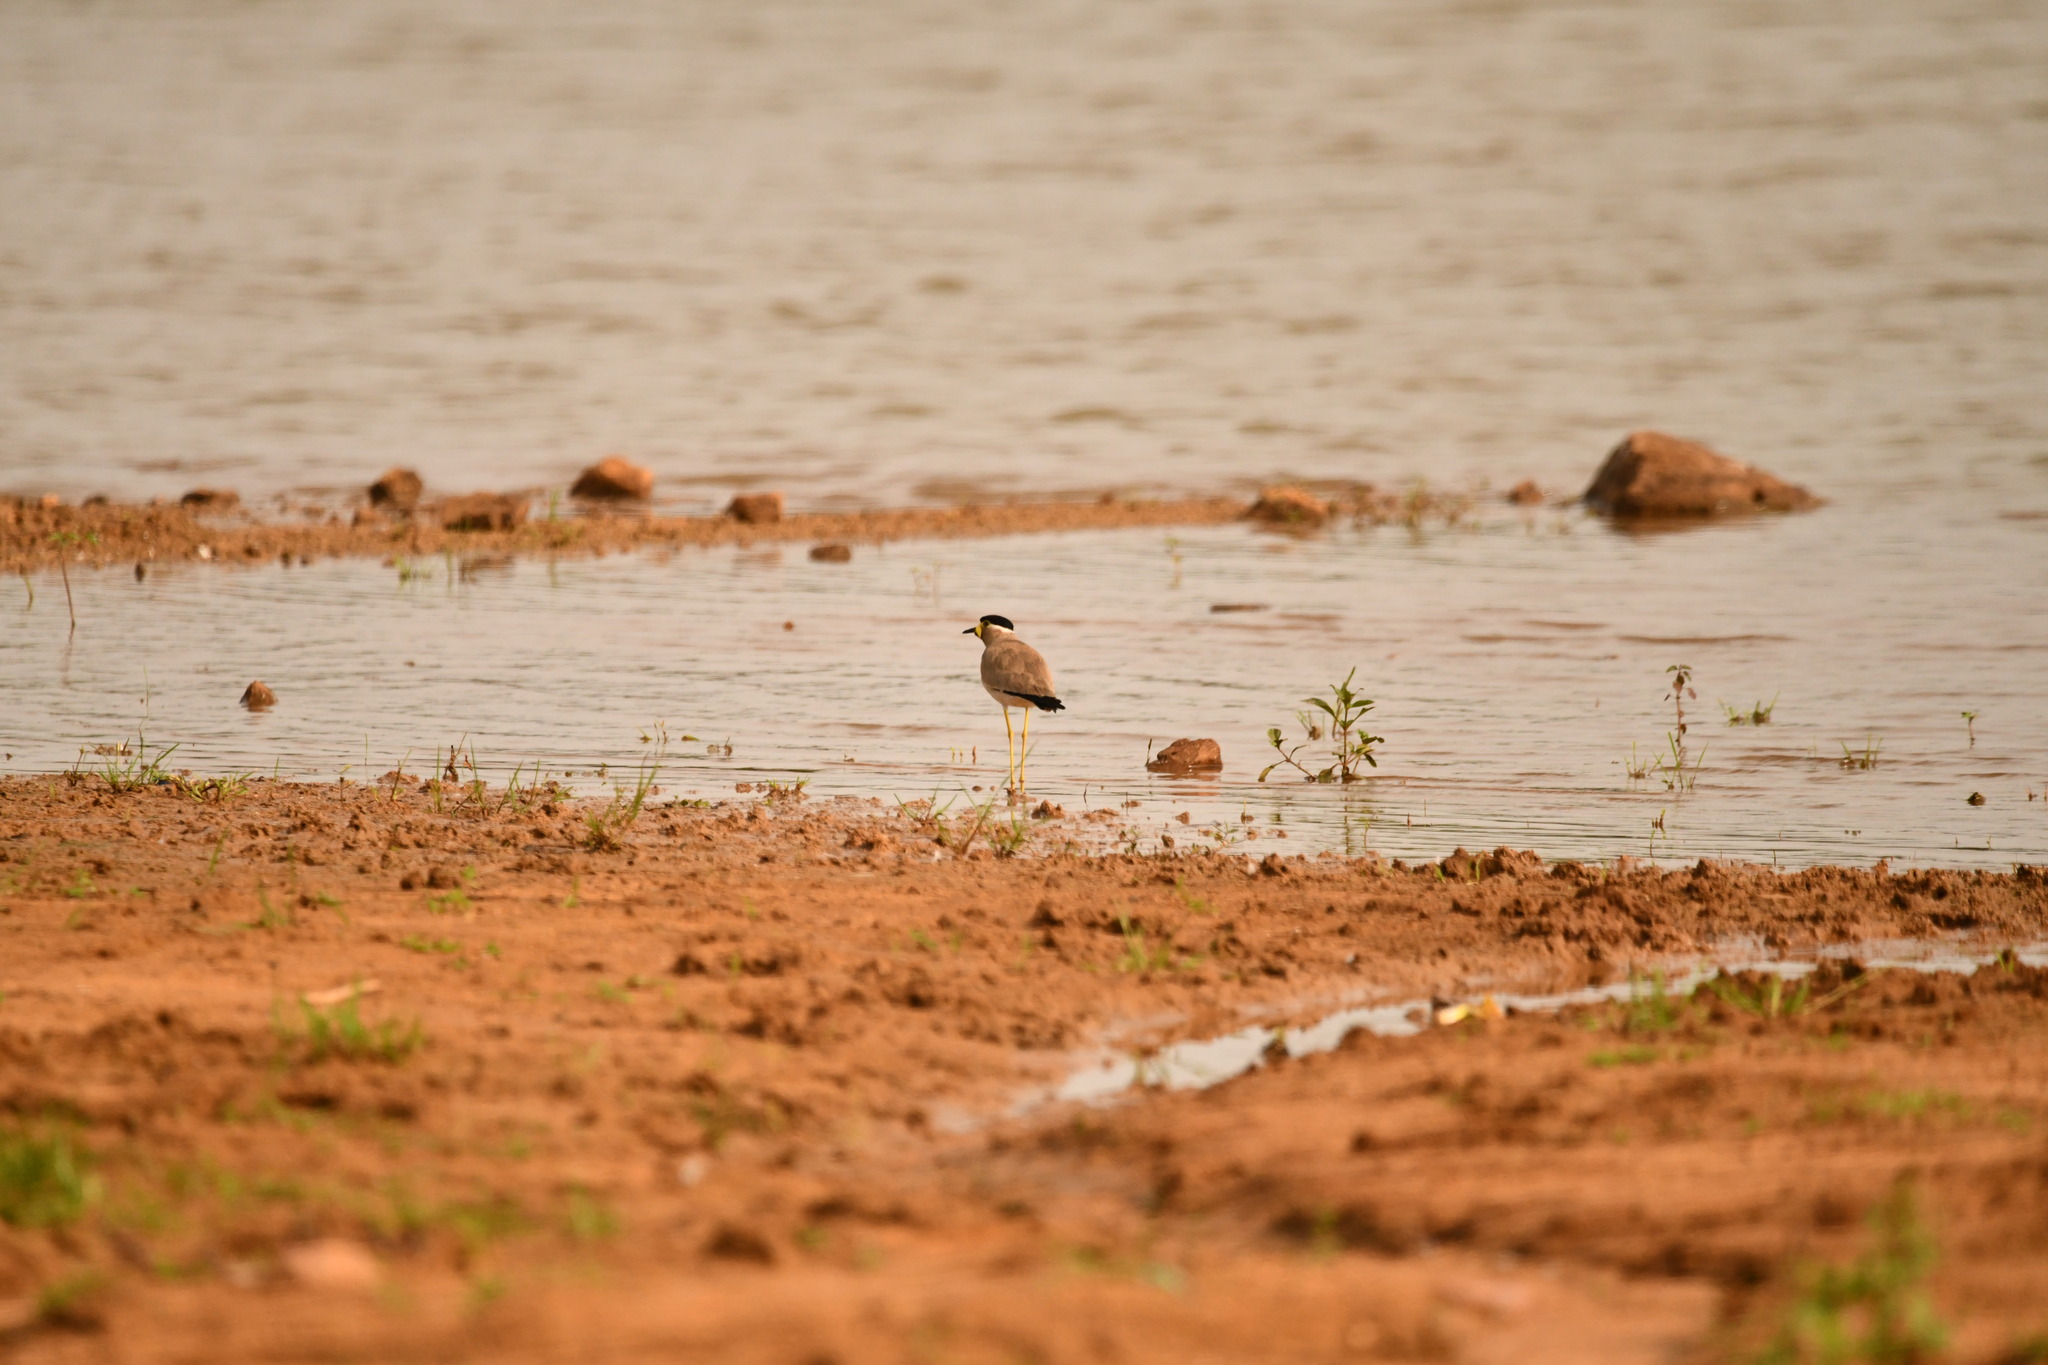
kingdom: Animalia
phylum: Chordata
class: Aves
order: Charadriiformes
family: Charadriidae
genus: Vanellus
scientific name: Vanellus malabaricus
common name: Yellow-wattled lapwing
